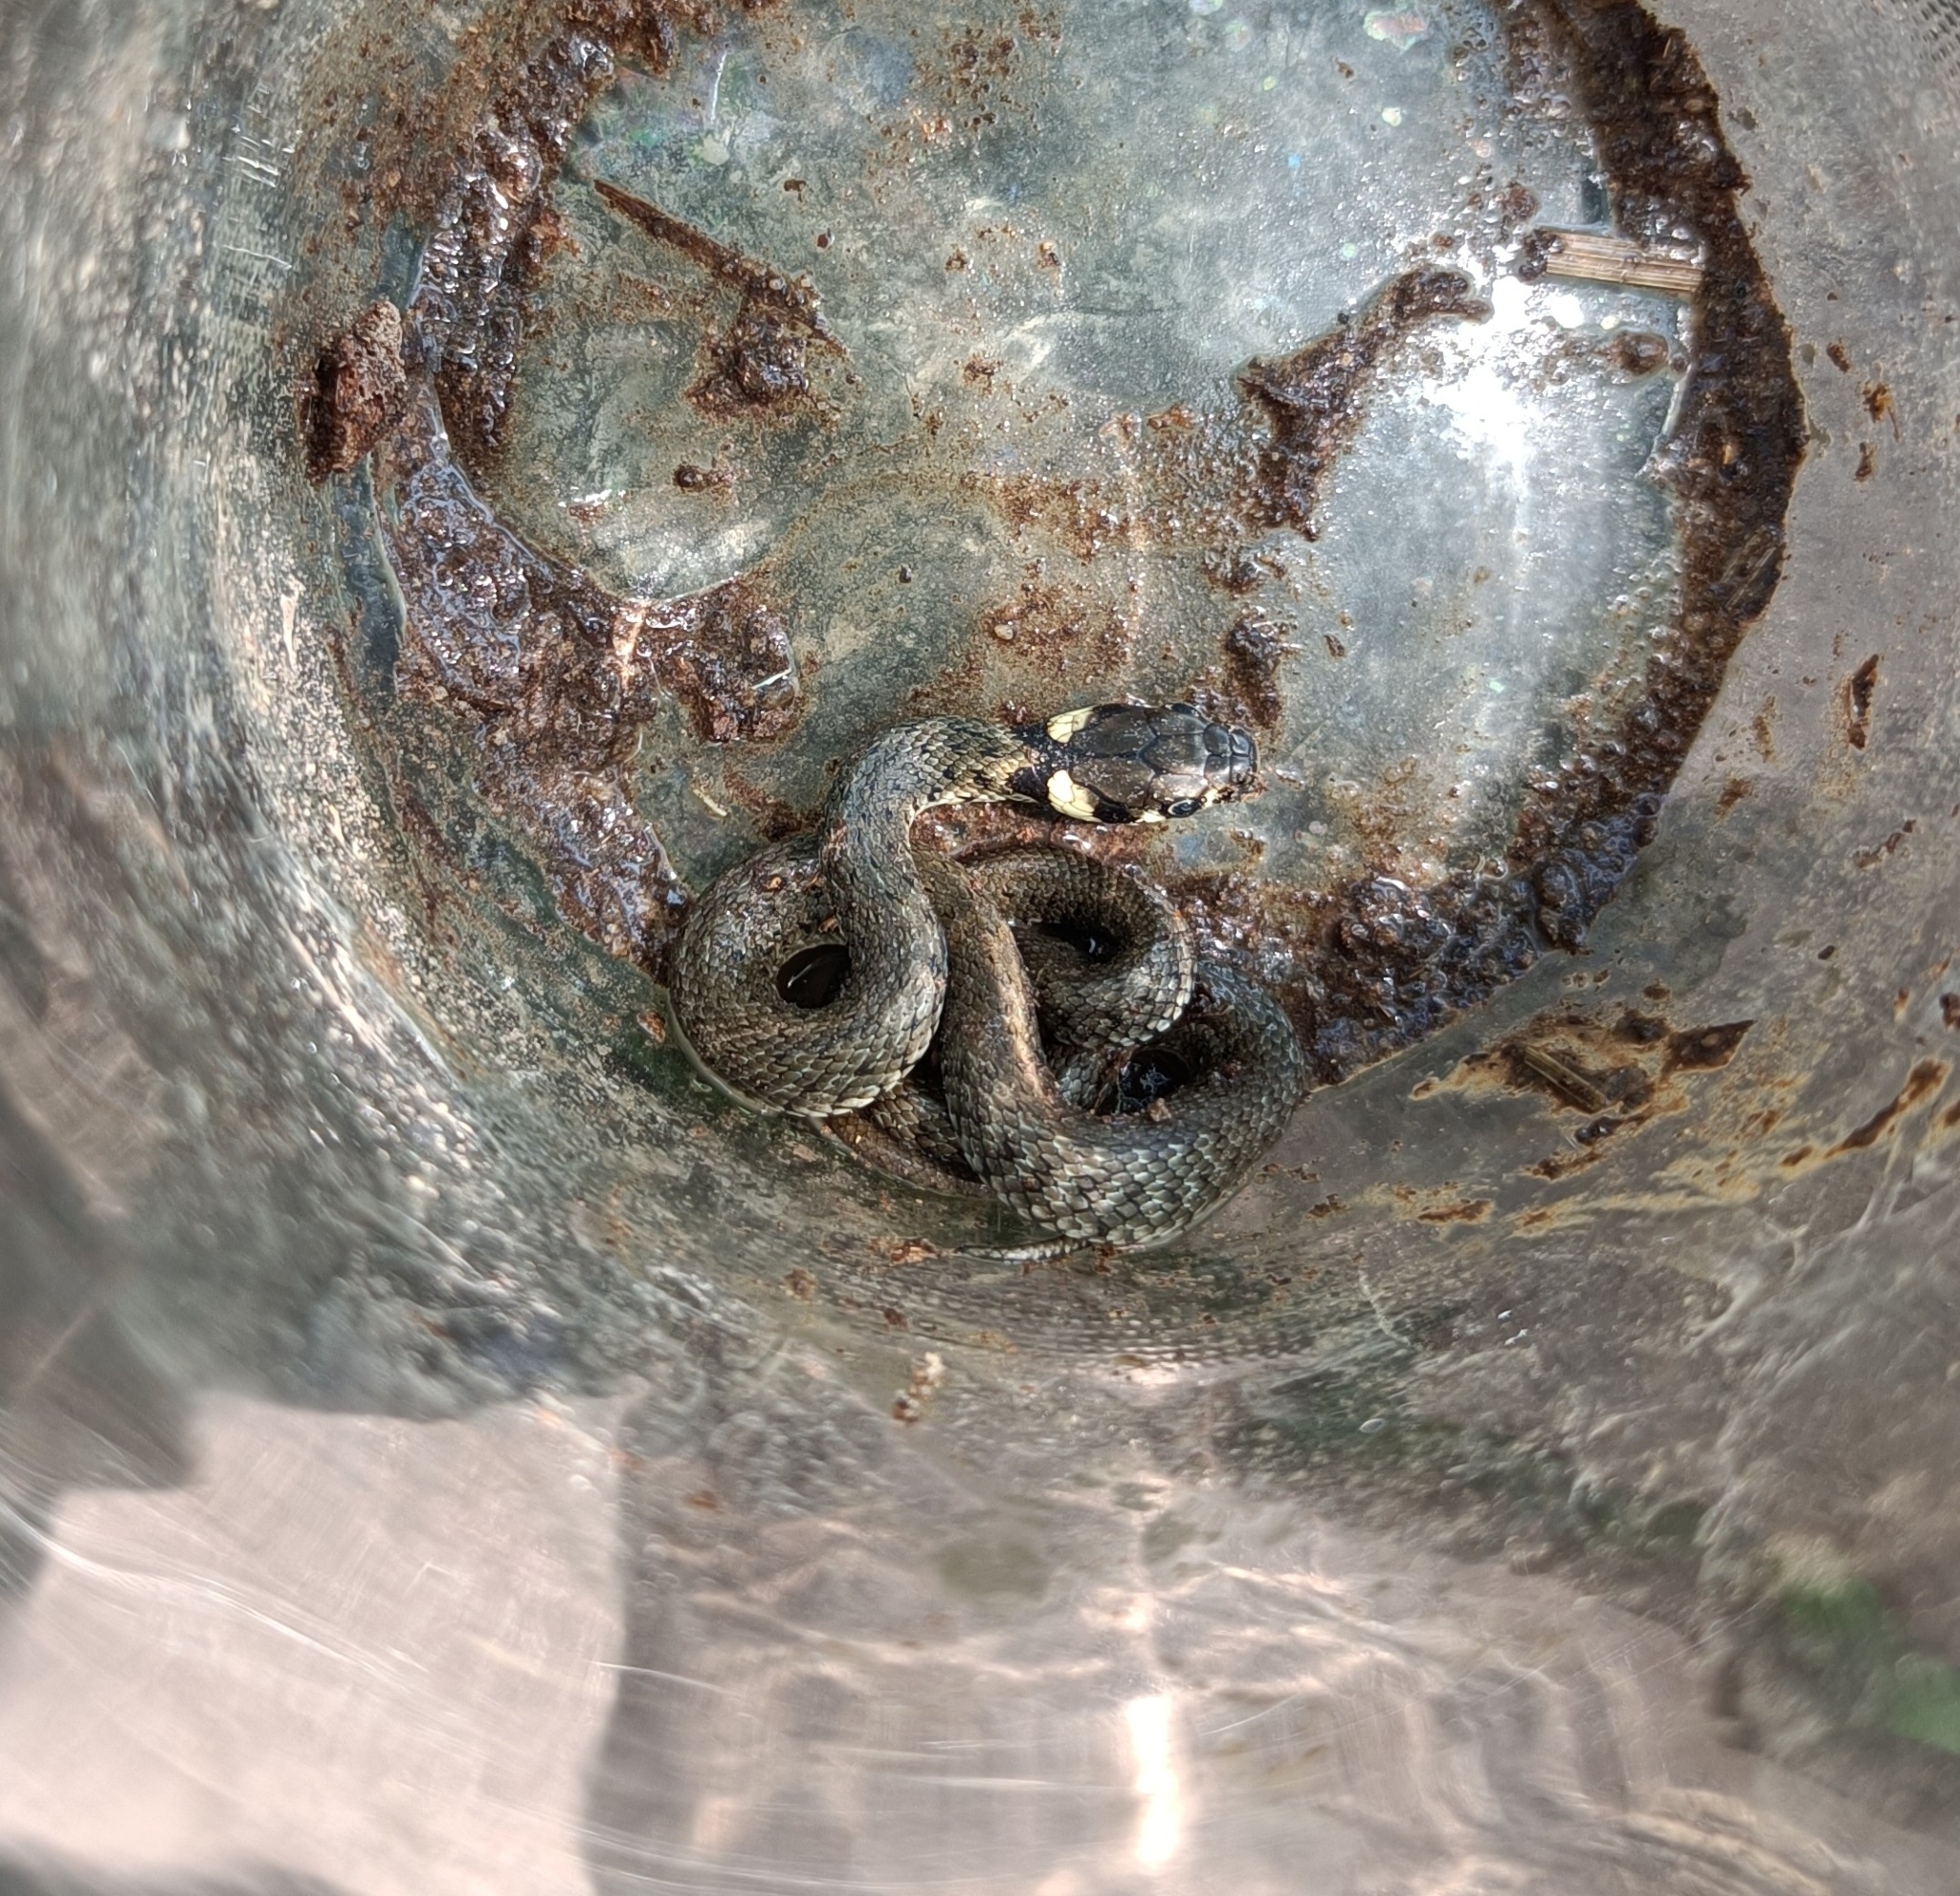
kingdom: Animalia
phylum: Chordata
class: Squamata
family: Colubridae
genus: Natrix
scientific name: Natrix natrix
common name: Grass snake
